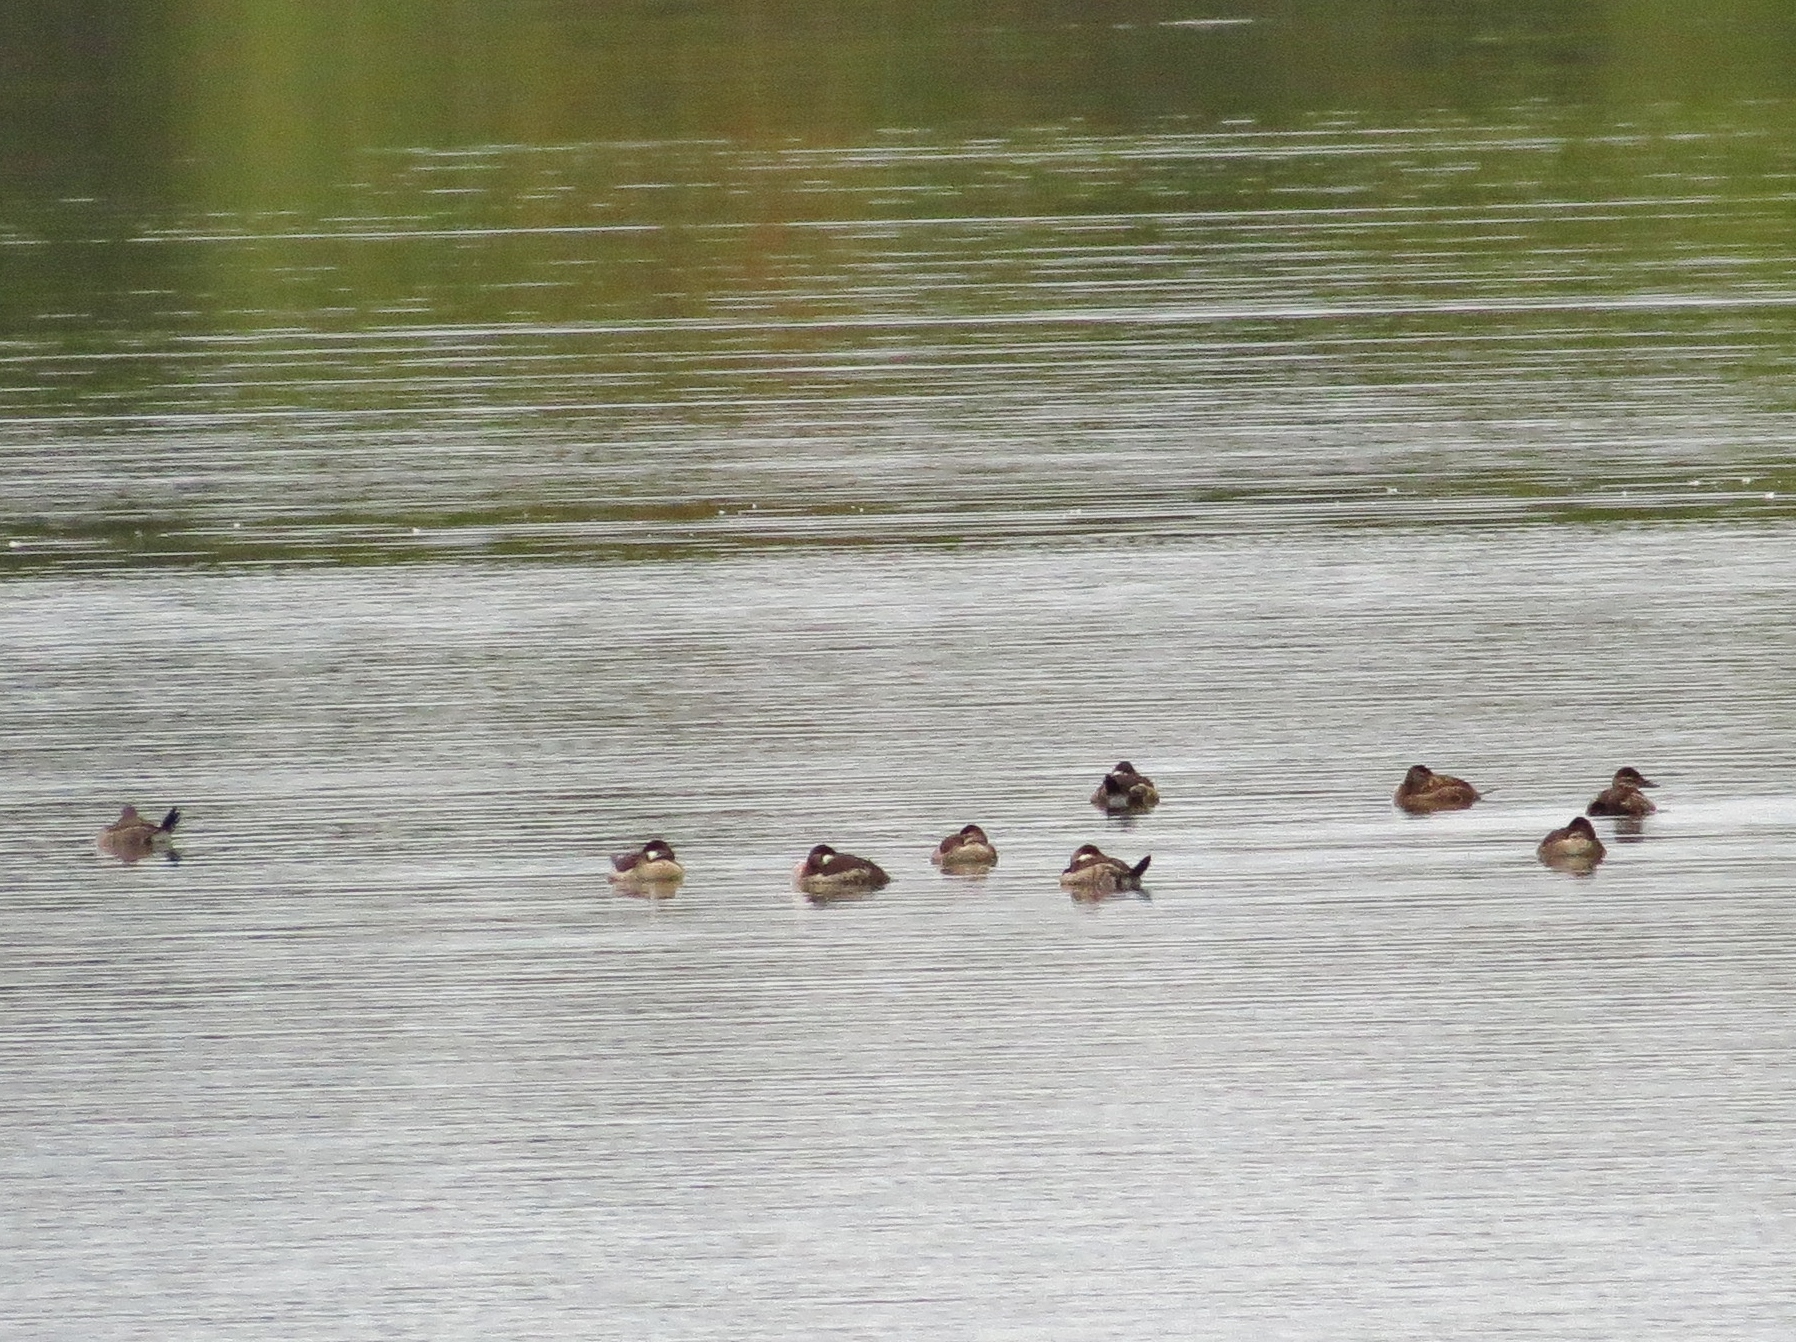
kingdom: Animalia
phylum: Chordata
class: Aves
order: Anseriformes
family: Anatidae
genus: Oxyura
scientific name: Oxyura jamaicensis
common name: Ruddy duck
